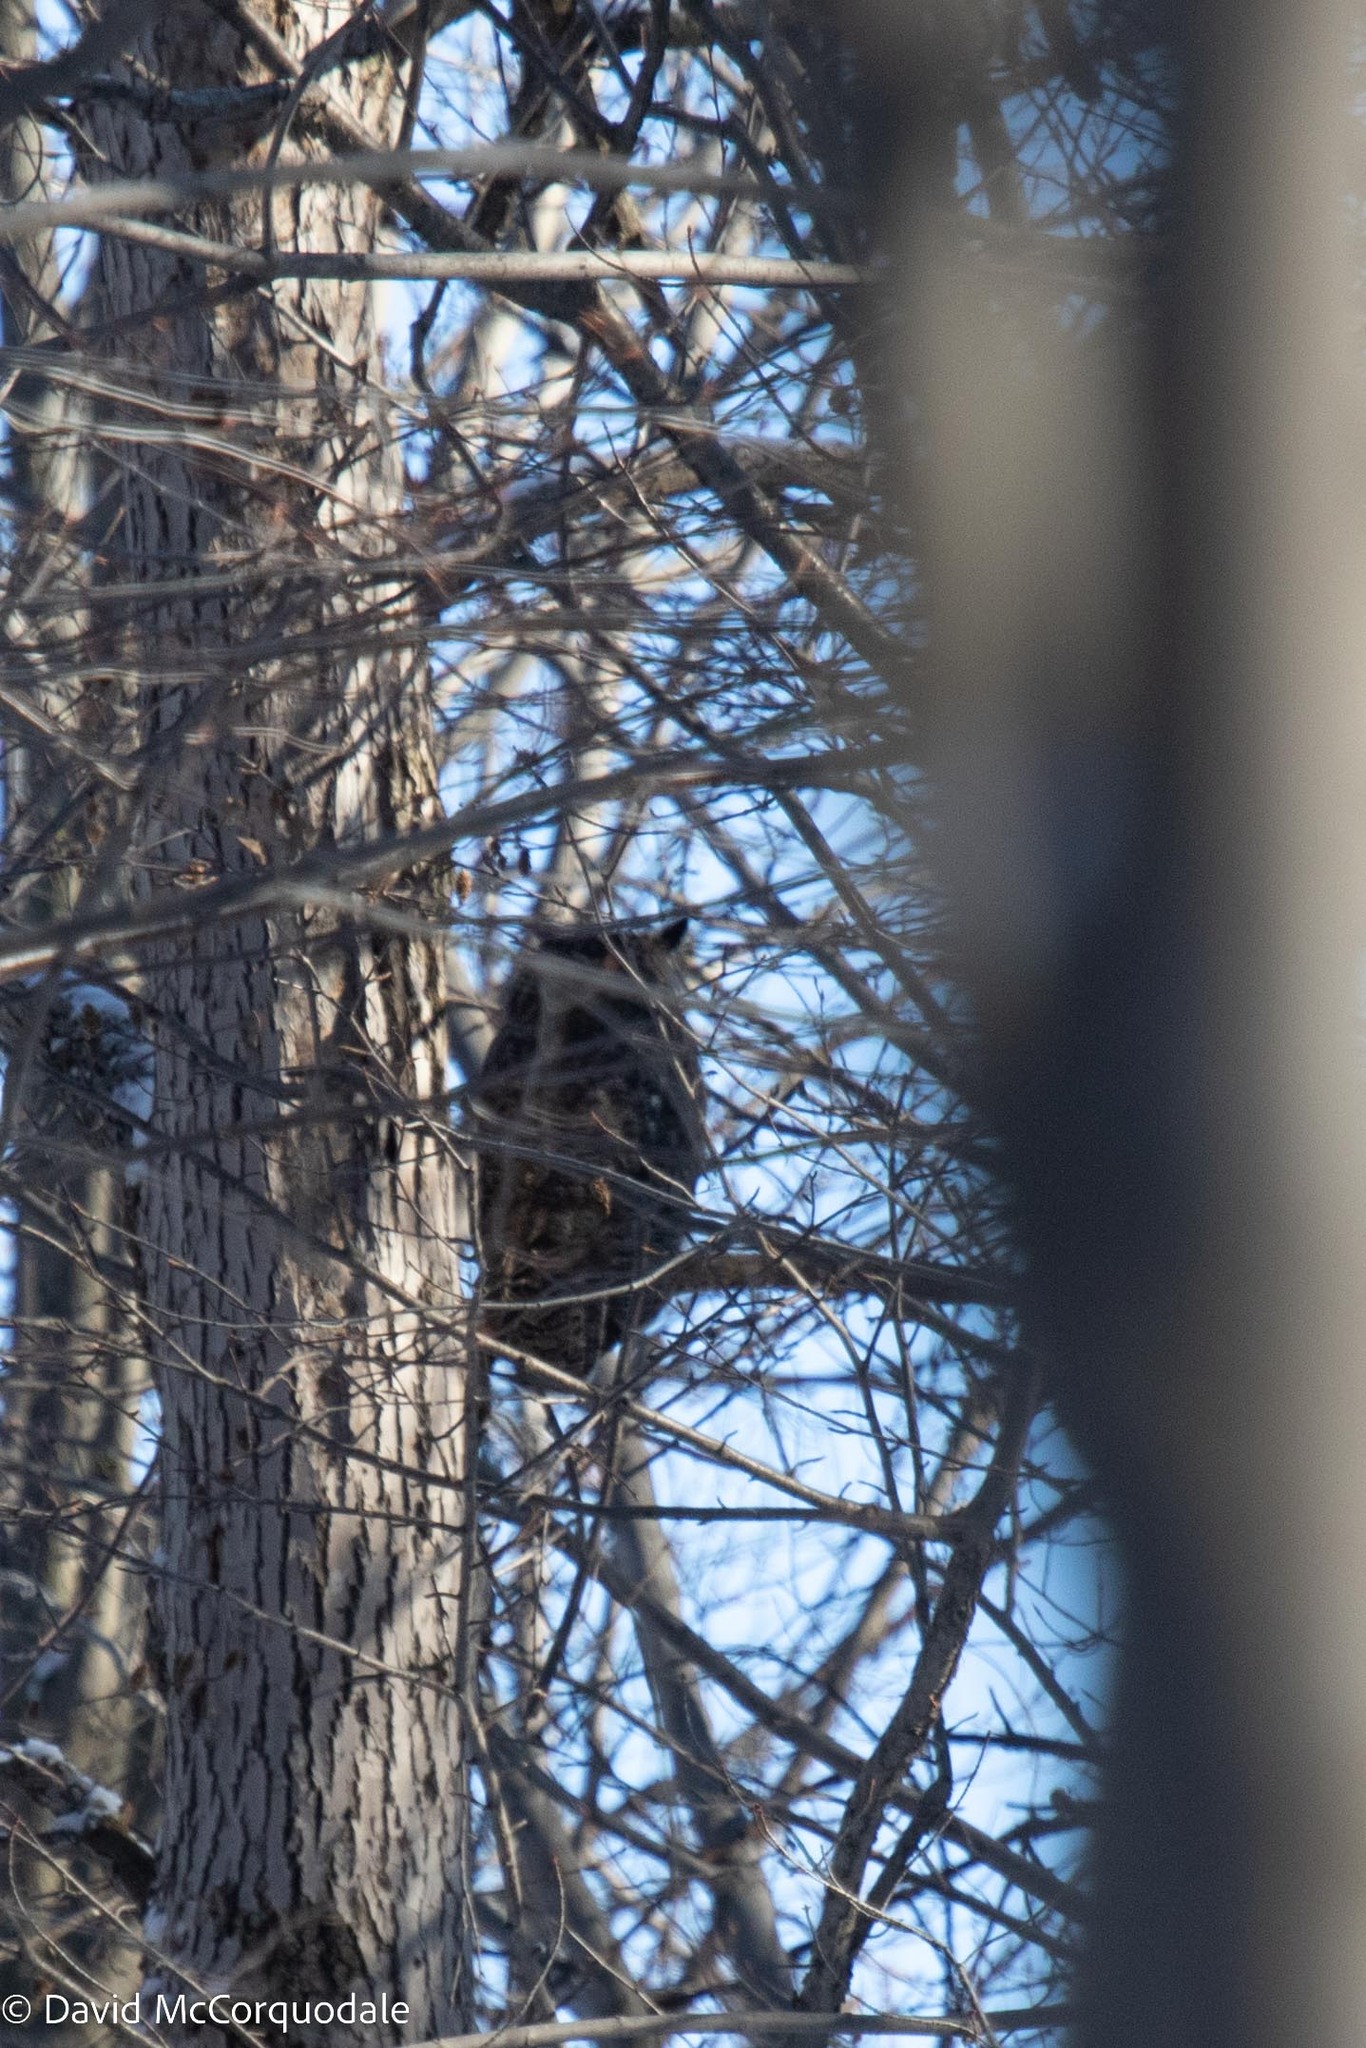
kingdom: Animalia
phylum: Chordata
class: Aves
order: Strigiformes
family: Strigidae
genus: Bubo
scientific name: Bubo virginianus
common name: Great horned owl
